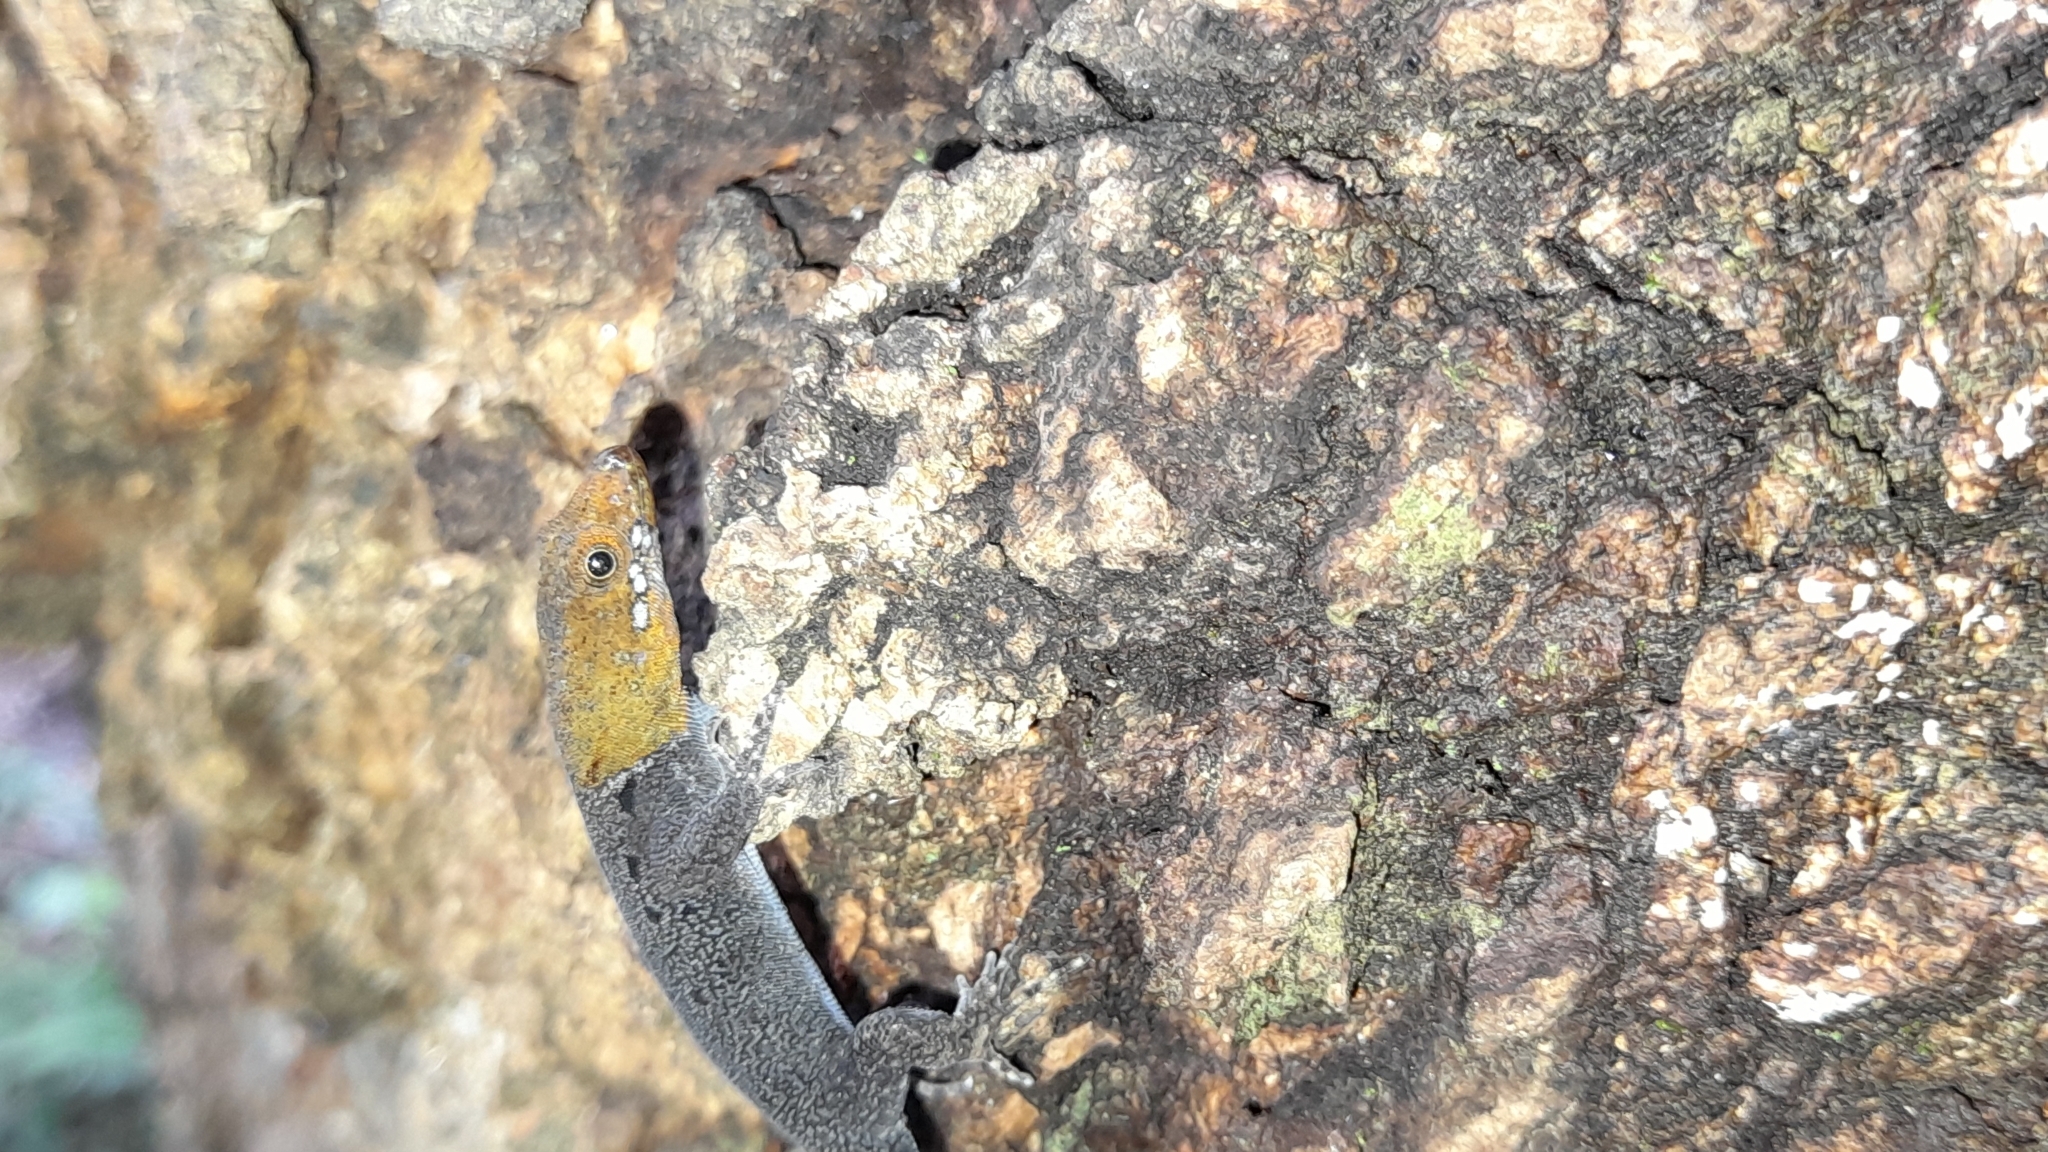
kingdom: Animalia
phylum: Chordata
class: Squamata
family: Sphaerodactylidae
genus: Gonatodes
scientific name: Gonatodes albogularis
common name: Yellow-headed gecko
